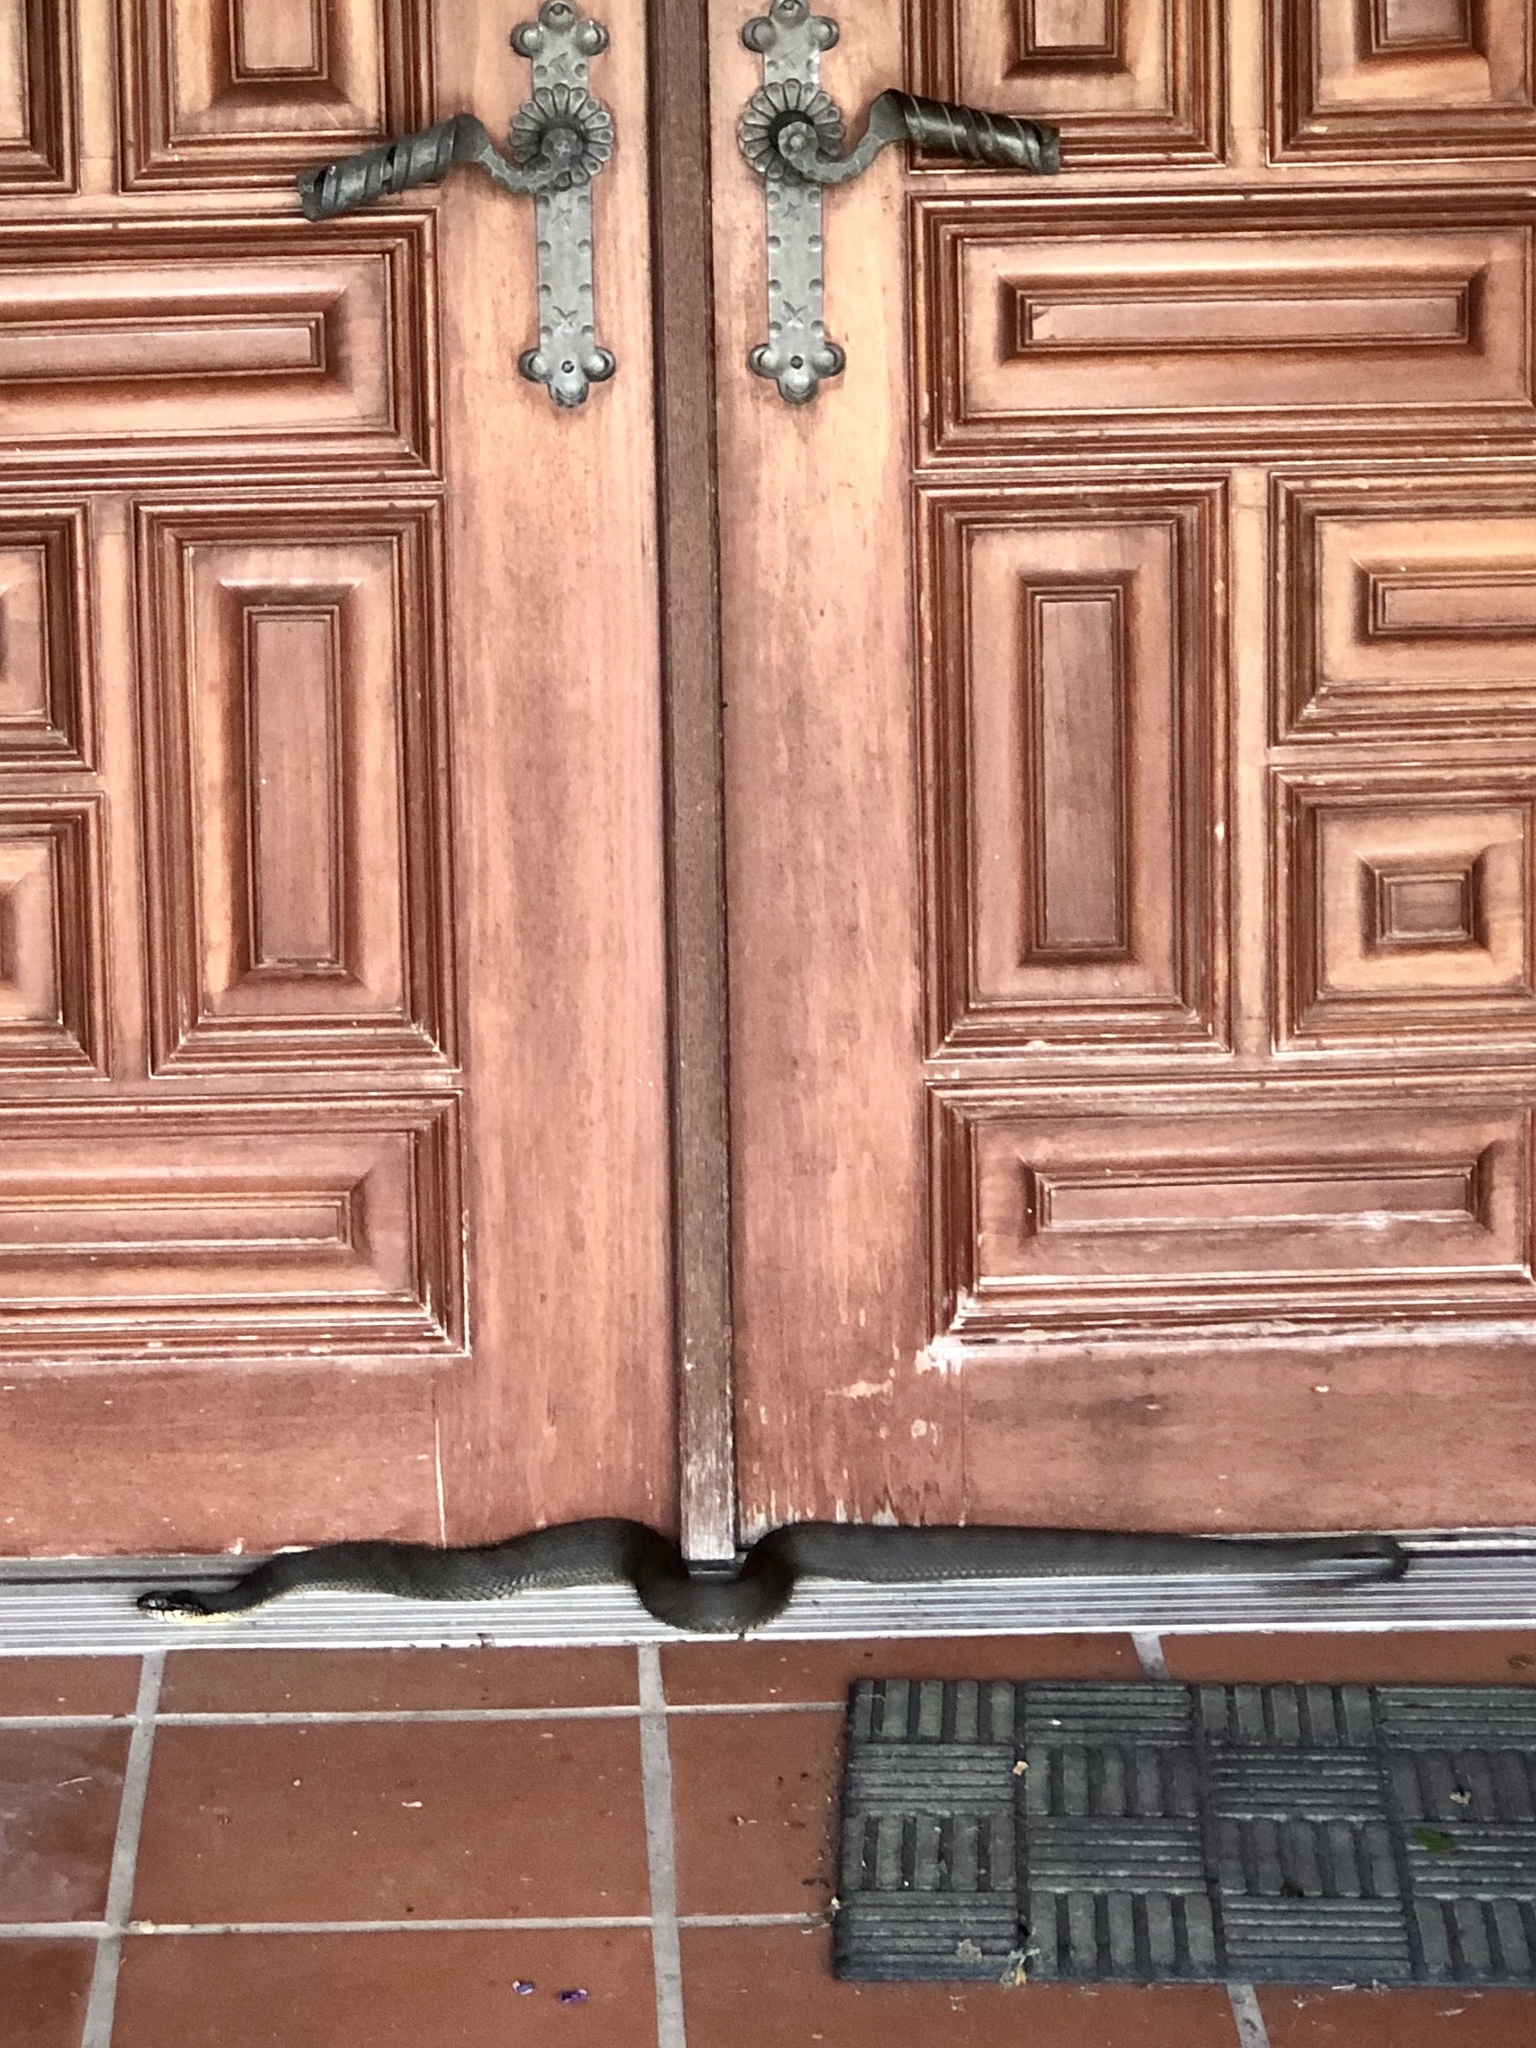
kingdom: Animalia
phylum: Chordata
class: Squamata
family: Colubridae
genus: Nerodia
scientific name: Nerodia erythrogaster
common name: Plainbelly water snake
